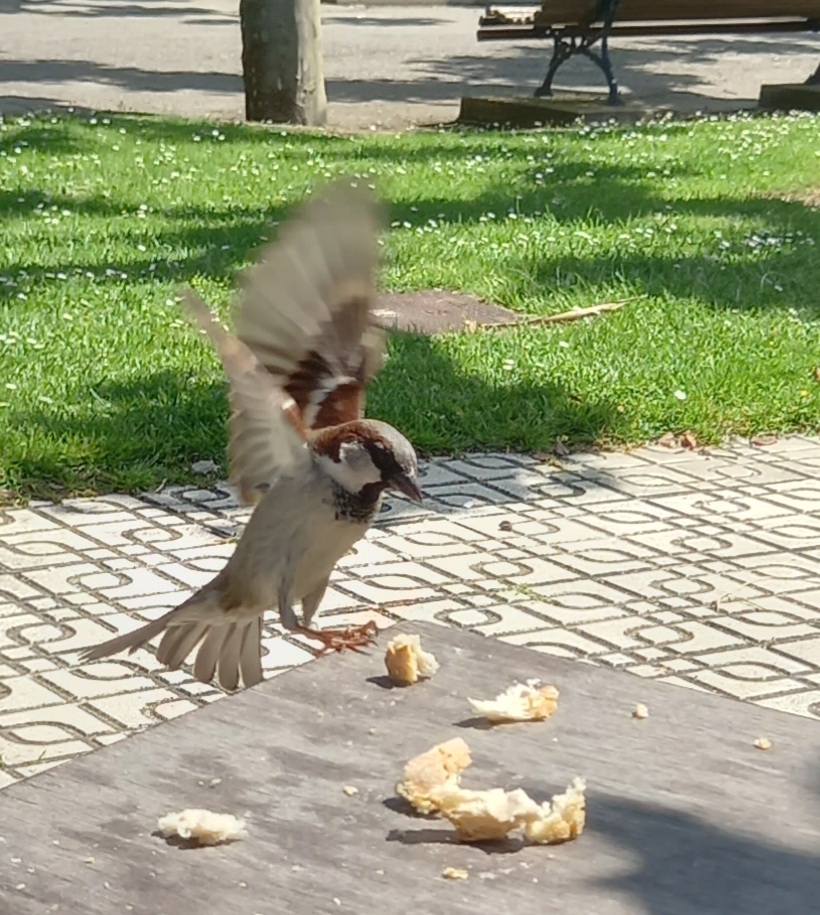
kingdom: Animalia
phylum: Chordata
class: Aves
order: Passeriformes
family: Passeridae
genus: Passer
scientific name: Passer domesticus
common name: House sparrow
